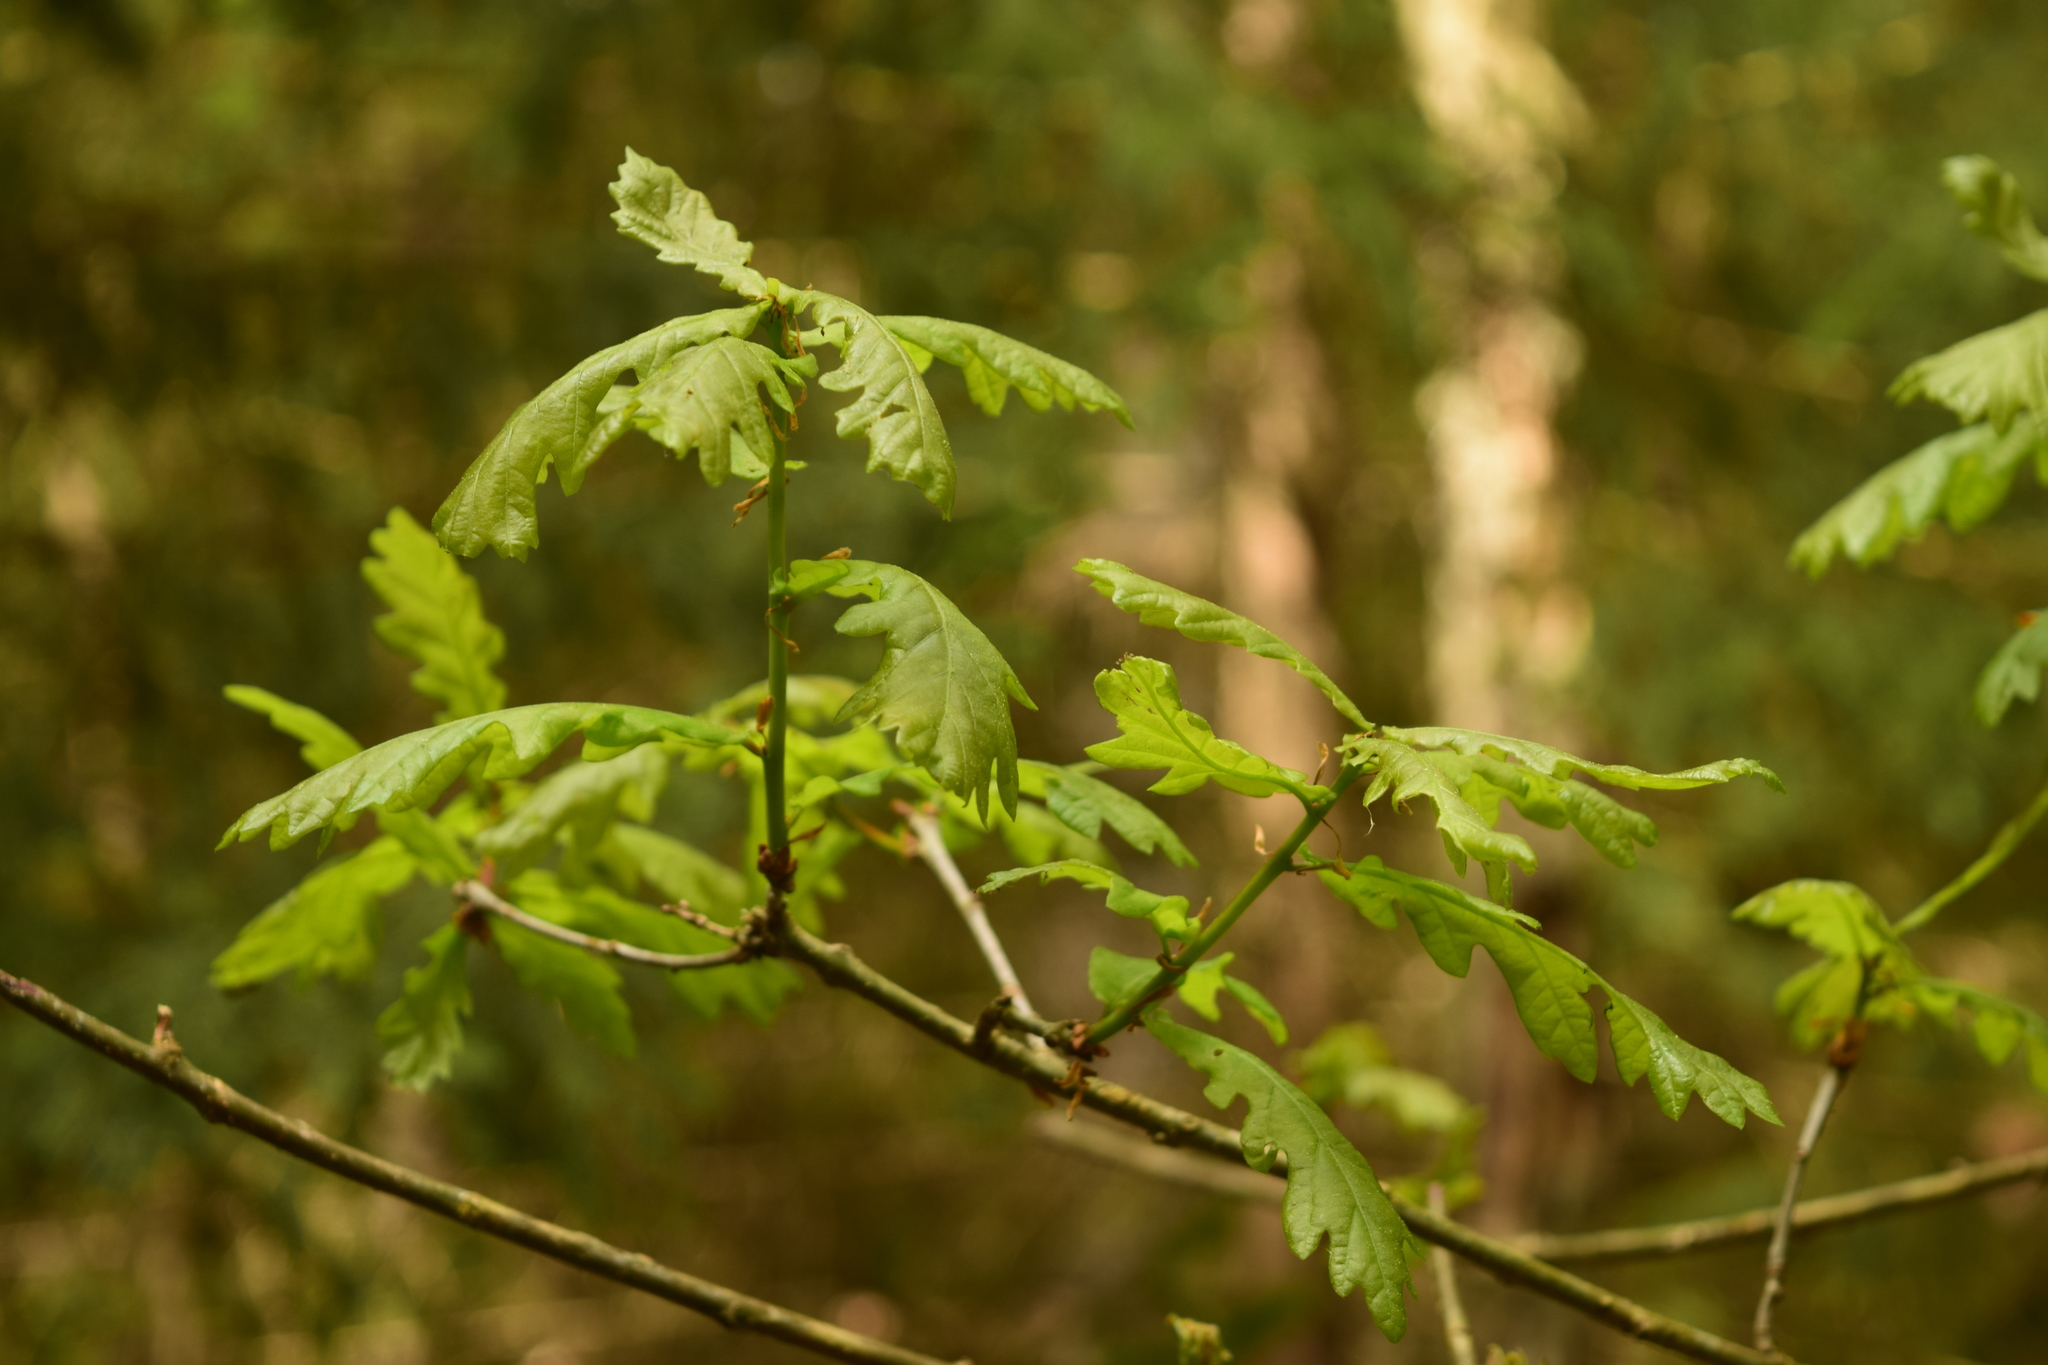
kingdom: Plantae
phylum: Tracheophyta
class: Magnoliopsida
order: Fagales
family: Fagaceae
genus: Quercus
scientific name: Quercus robur
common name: Pedunculate oak
